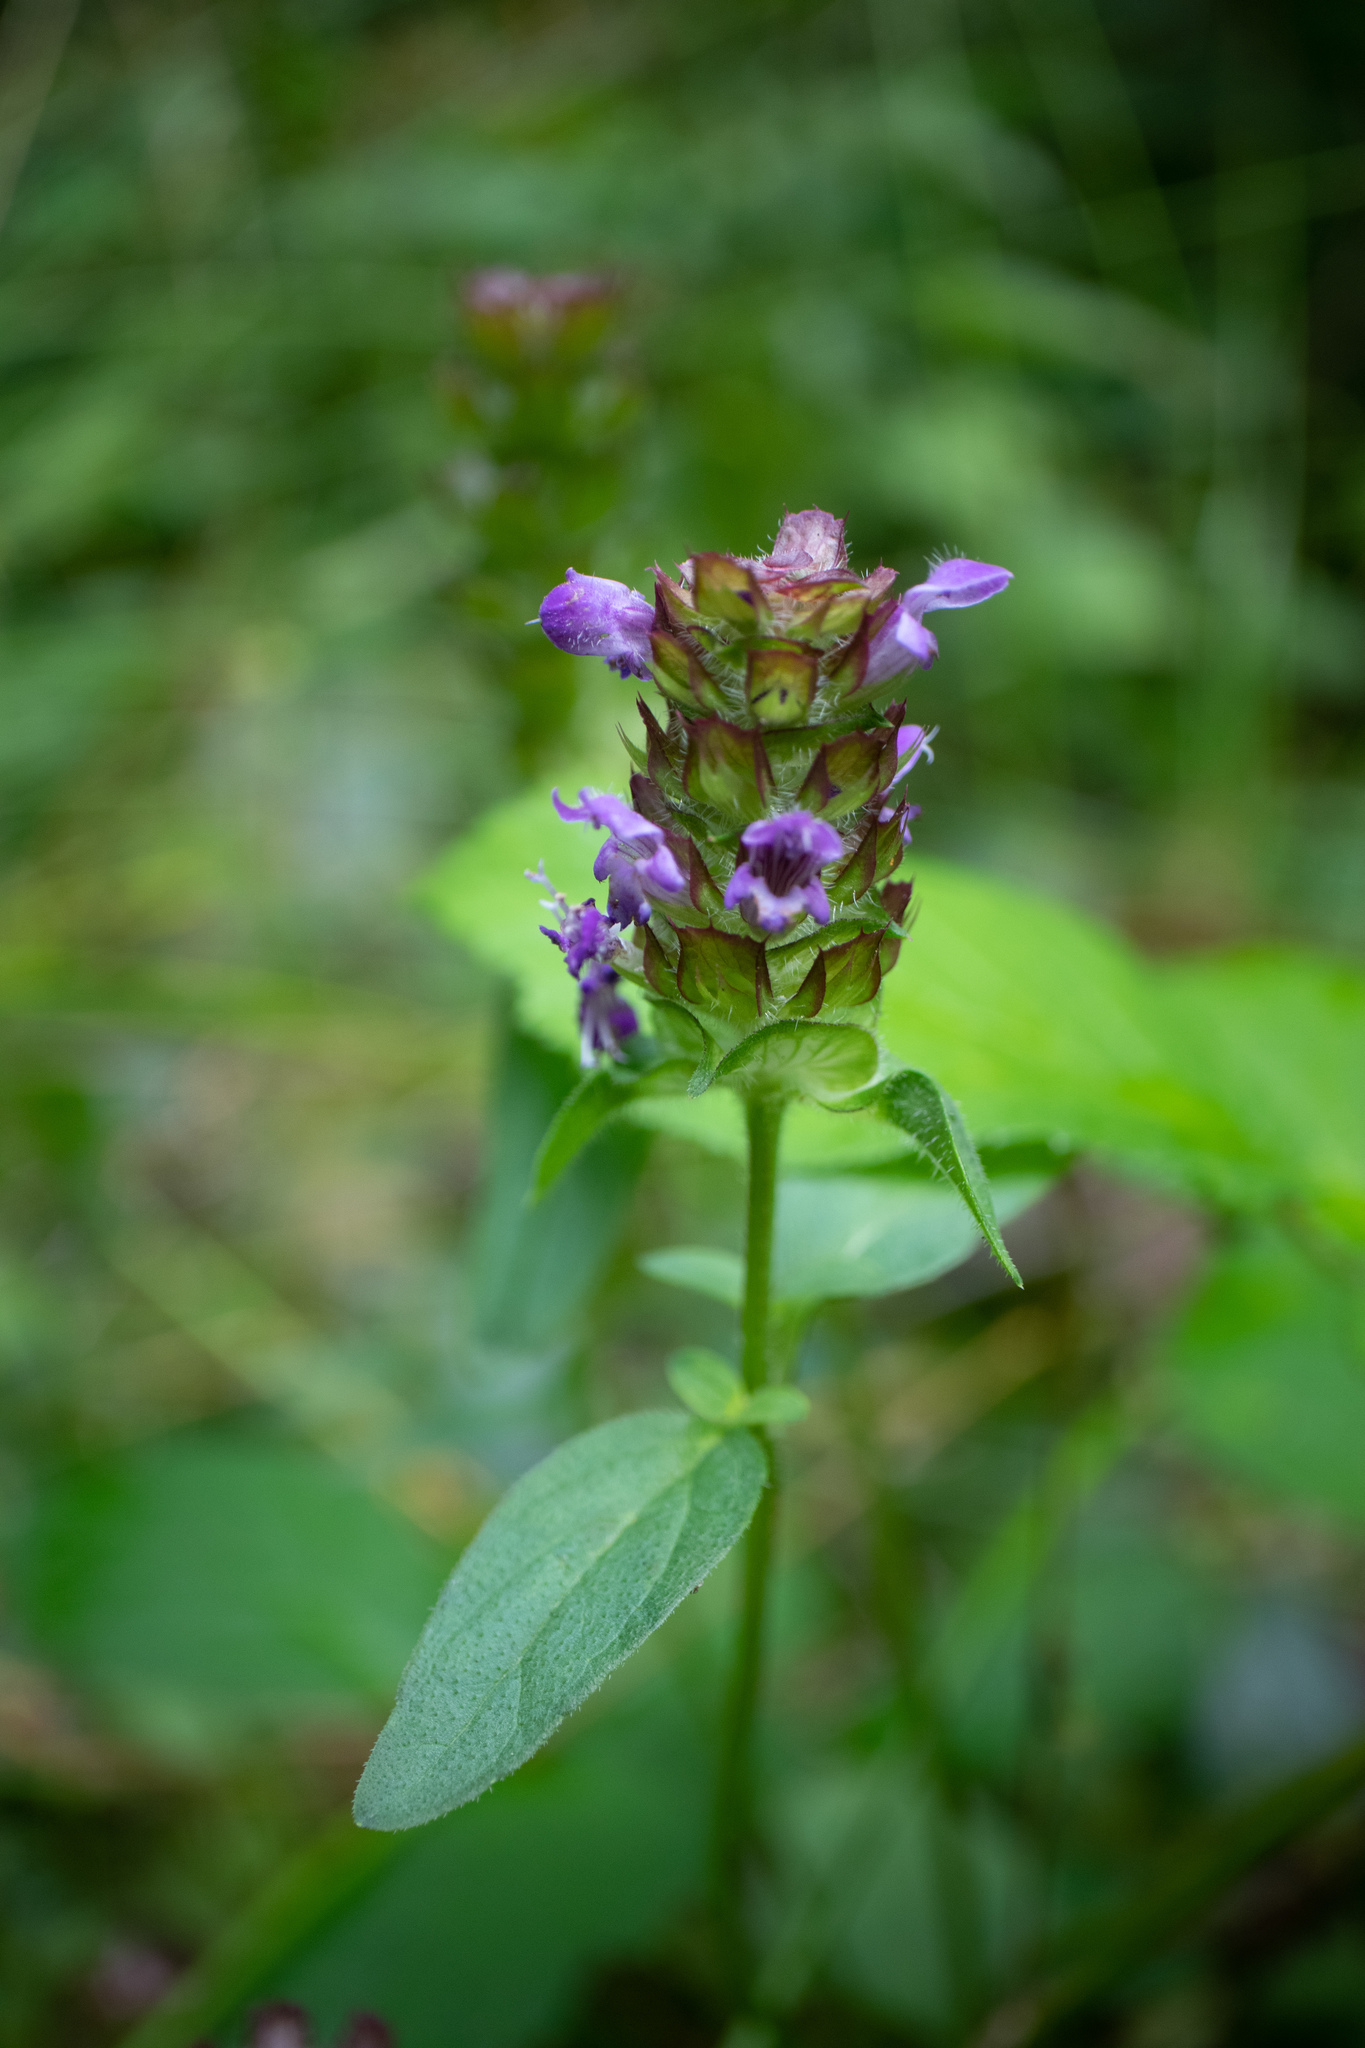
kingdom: Plantae
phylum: Tracheophyta
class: Magnoliopsida
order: Lamiales
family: Lamiaceae
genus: Prunella
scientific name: Prunella vulgaris
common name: Heal-all
